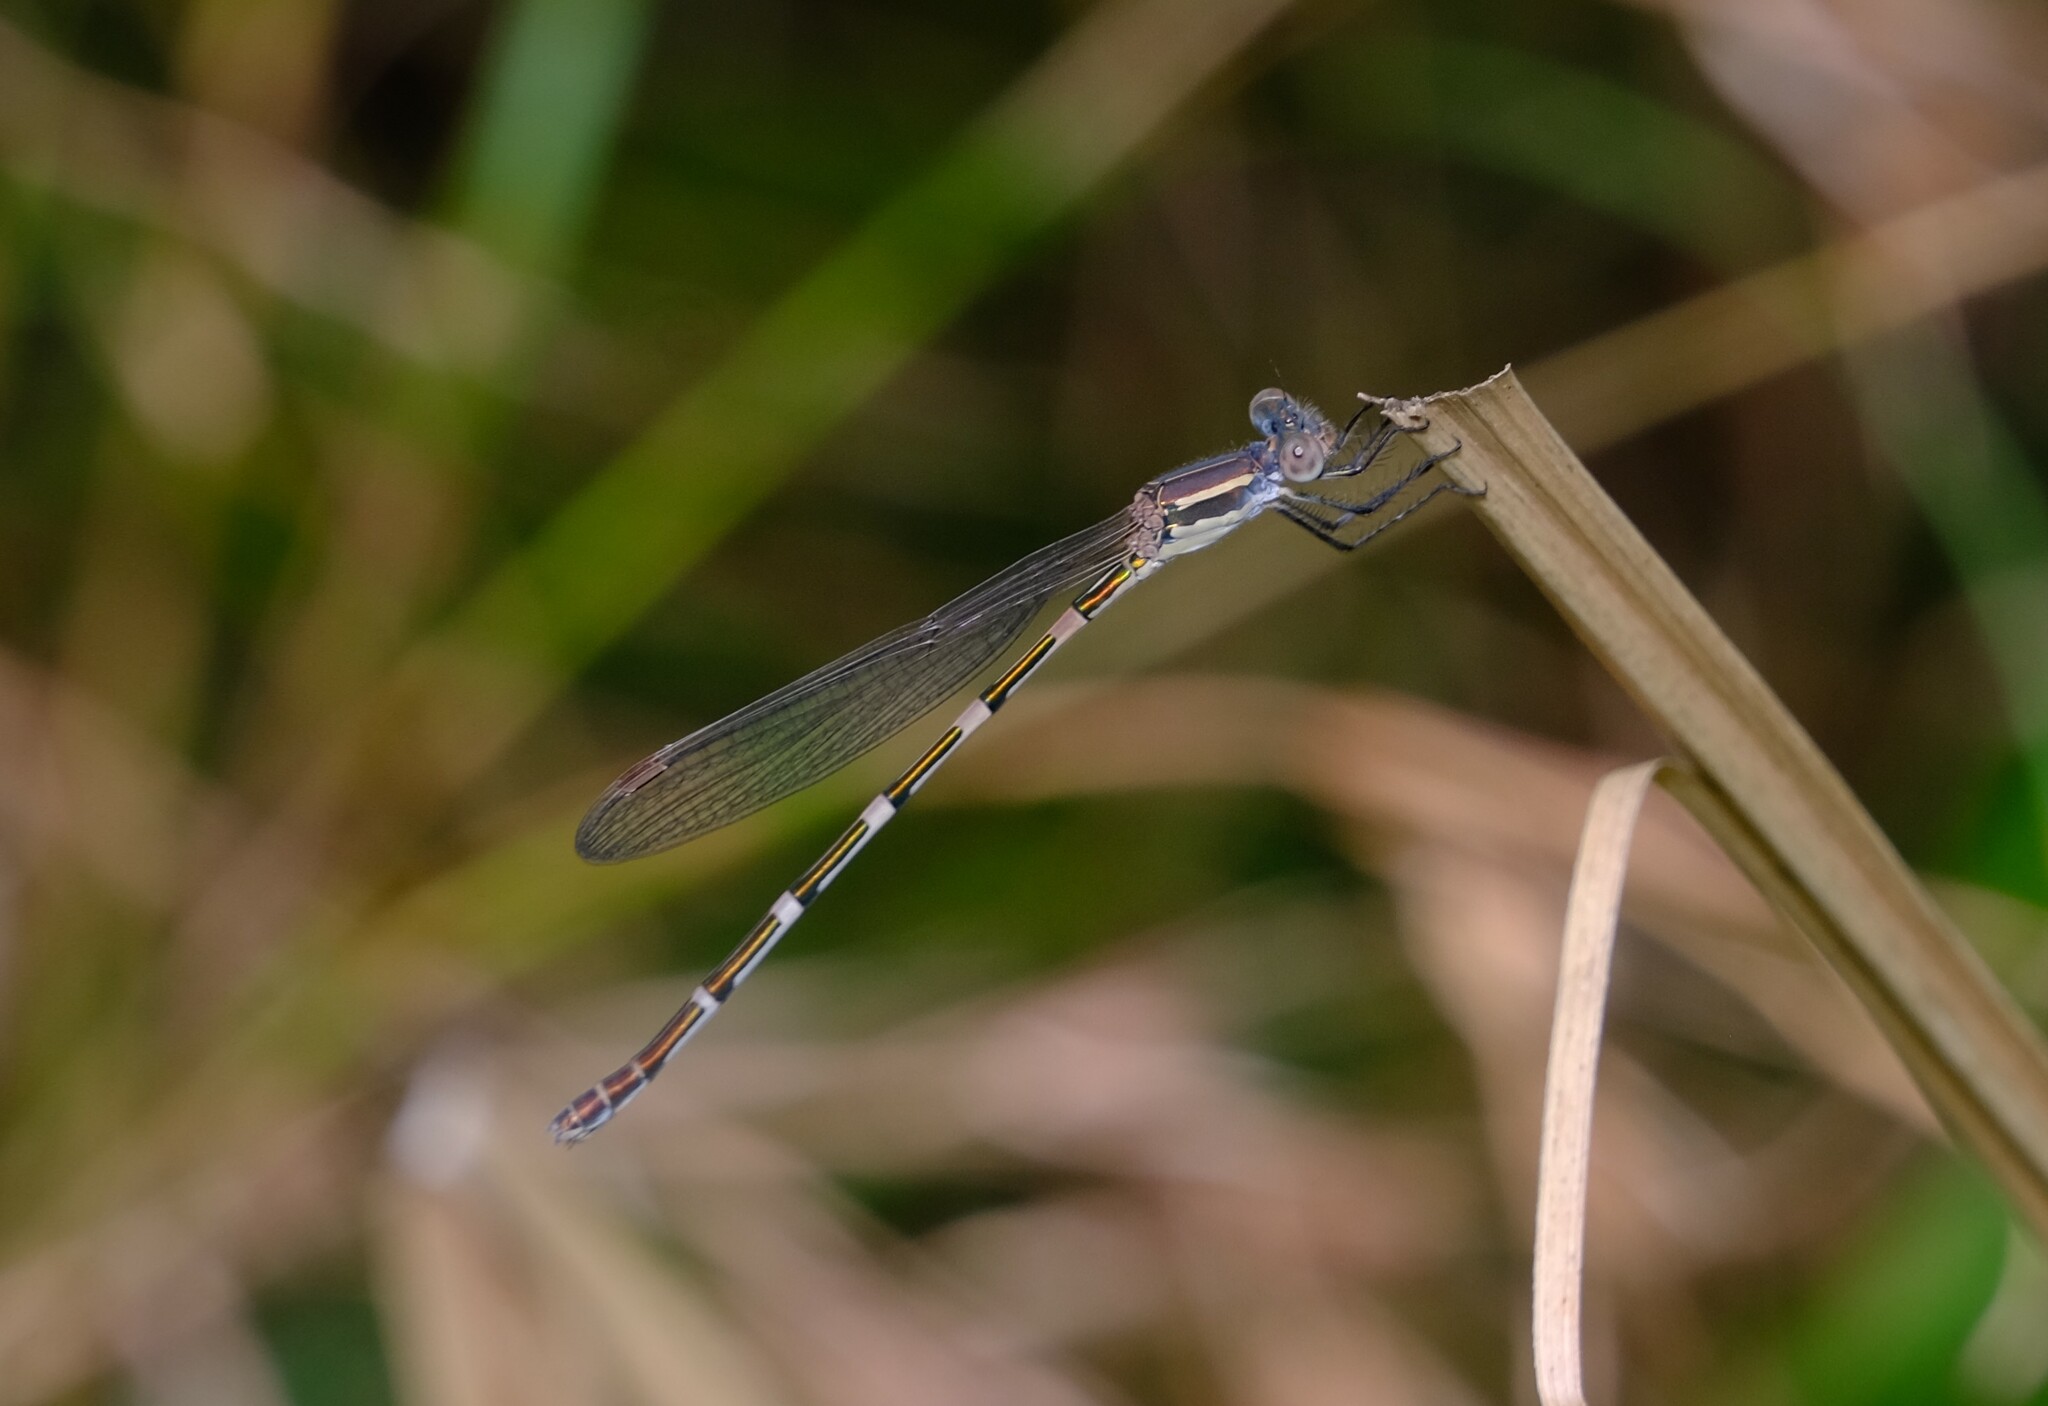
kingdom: Animalia
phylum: Arthropoda
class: Insecta
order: Odonata
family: Lestidae
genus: Austrolestes
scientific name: Austrolestes leda
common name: Wandering ringtail
